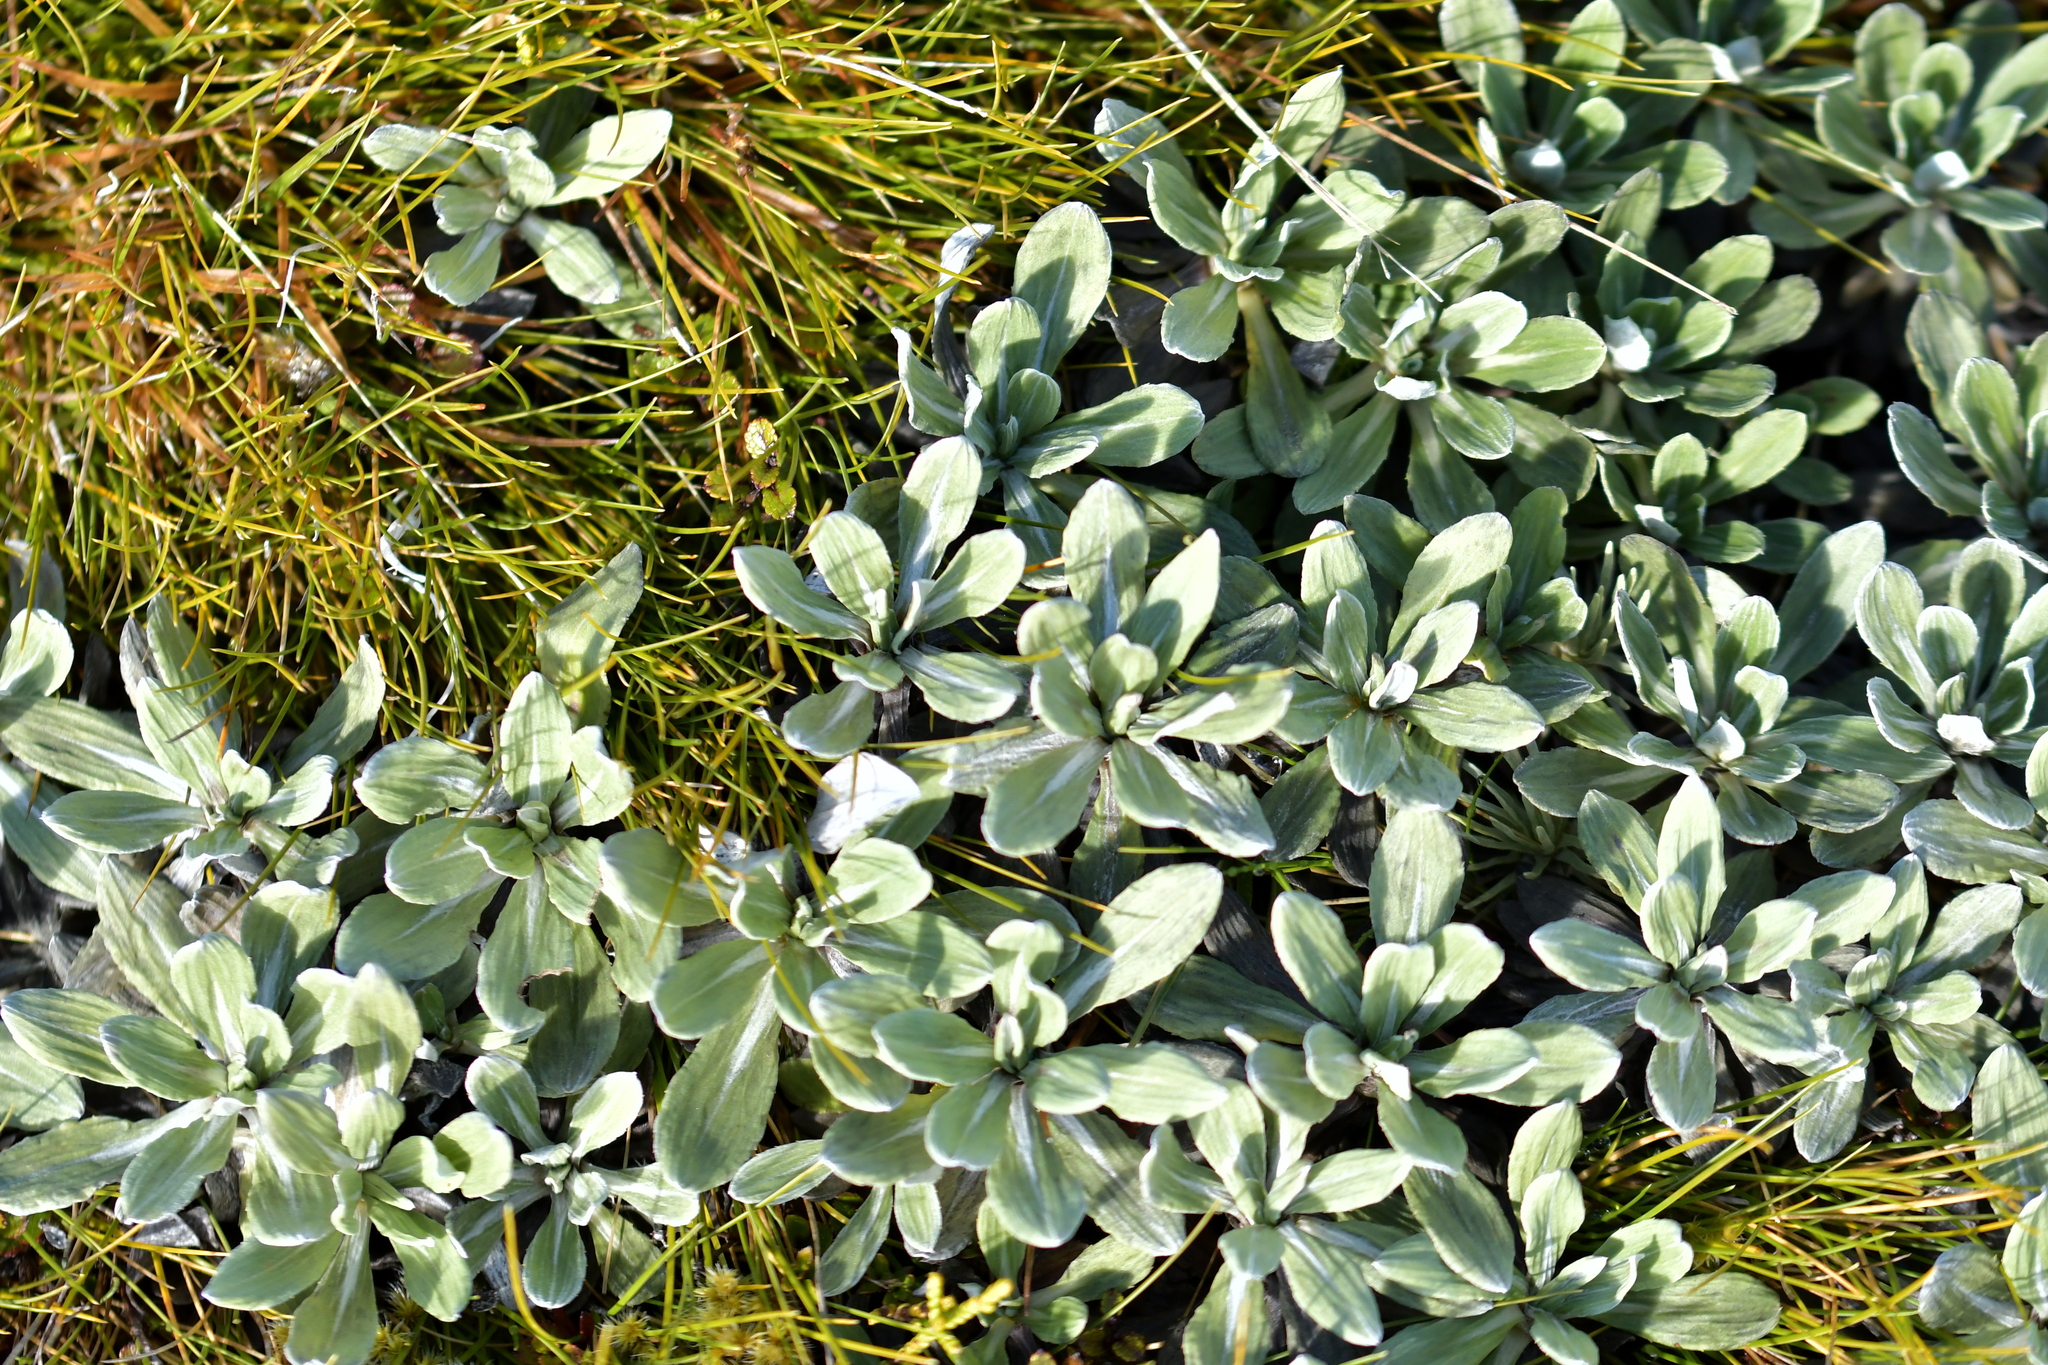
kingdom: Plantae
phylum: Tracheophyta
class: Magnoliopsida
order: Asterales
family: Asteraceae
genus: Celmisia
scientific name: Celmisia discolor
